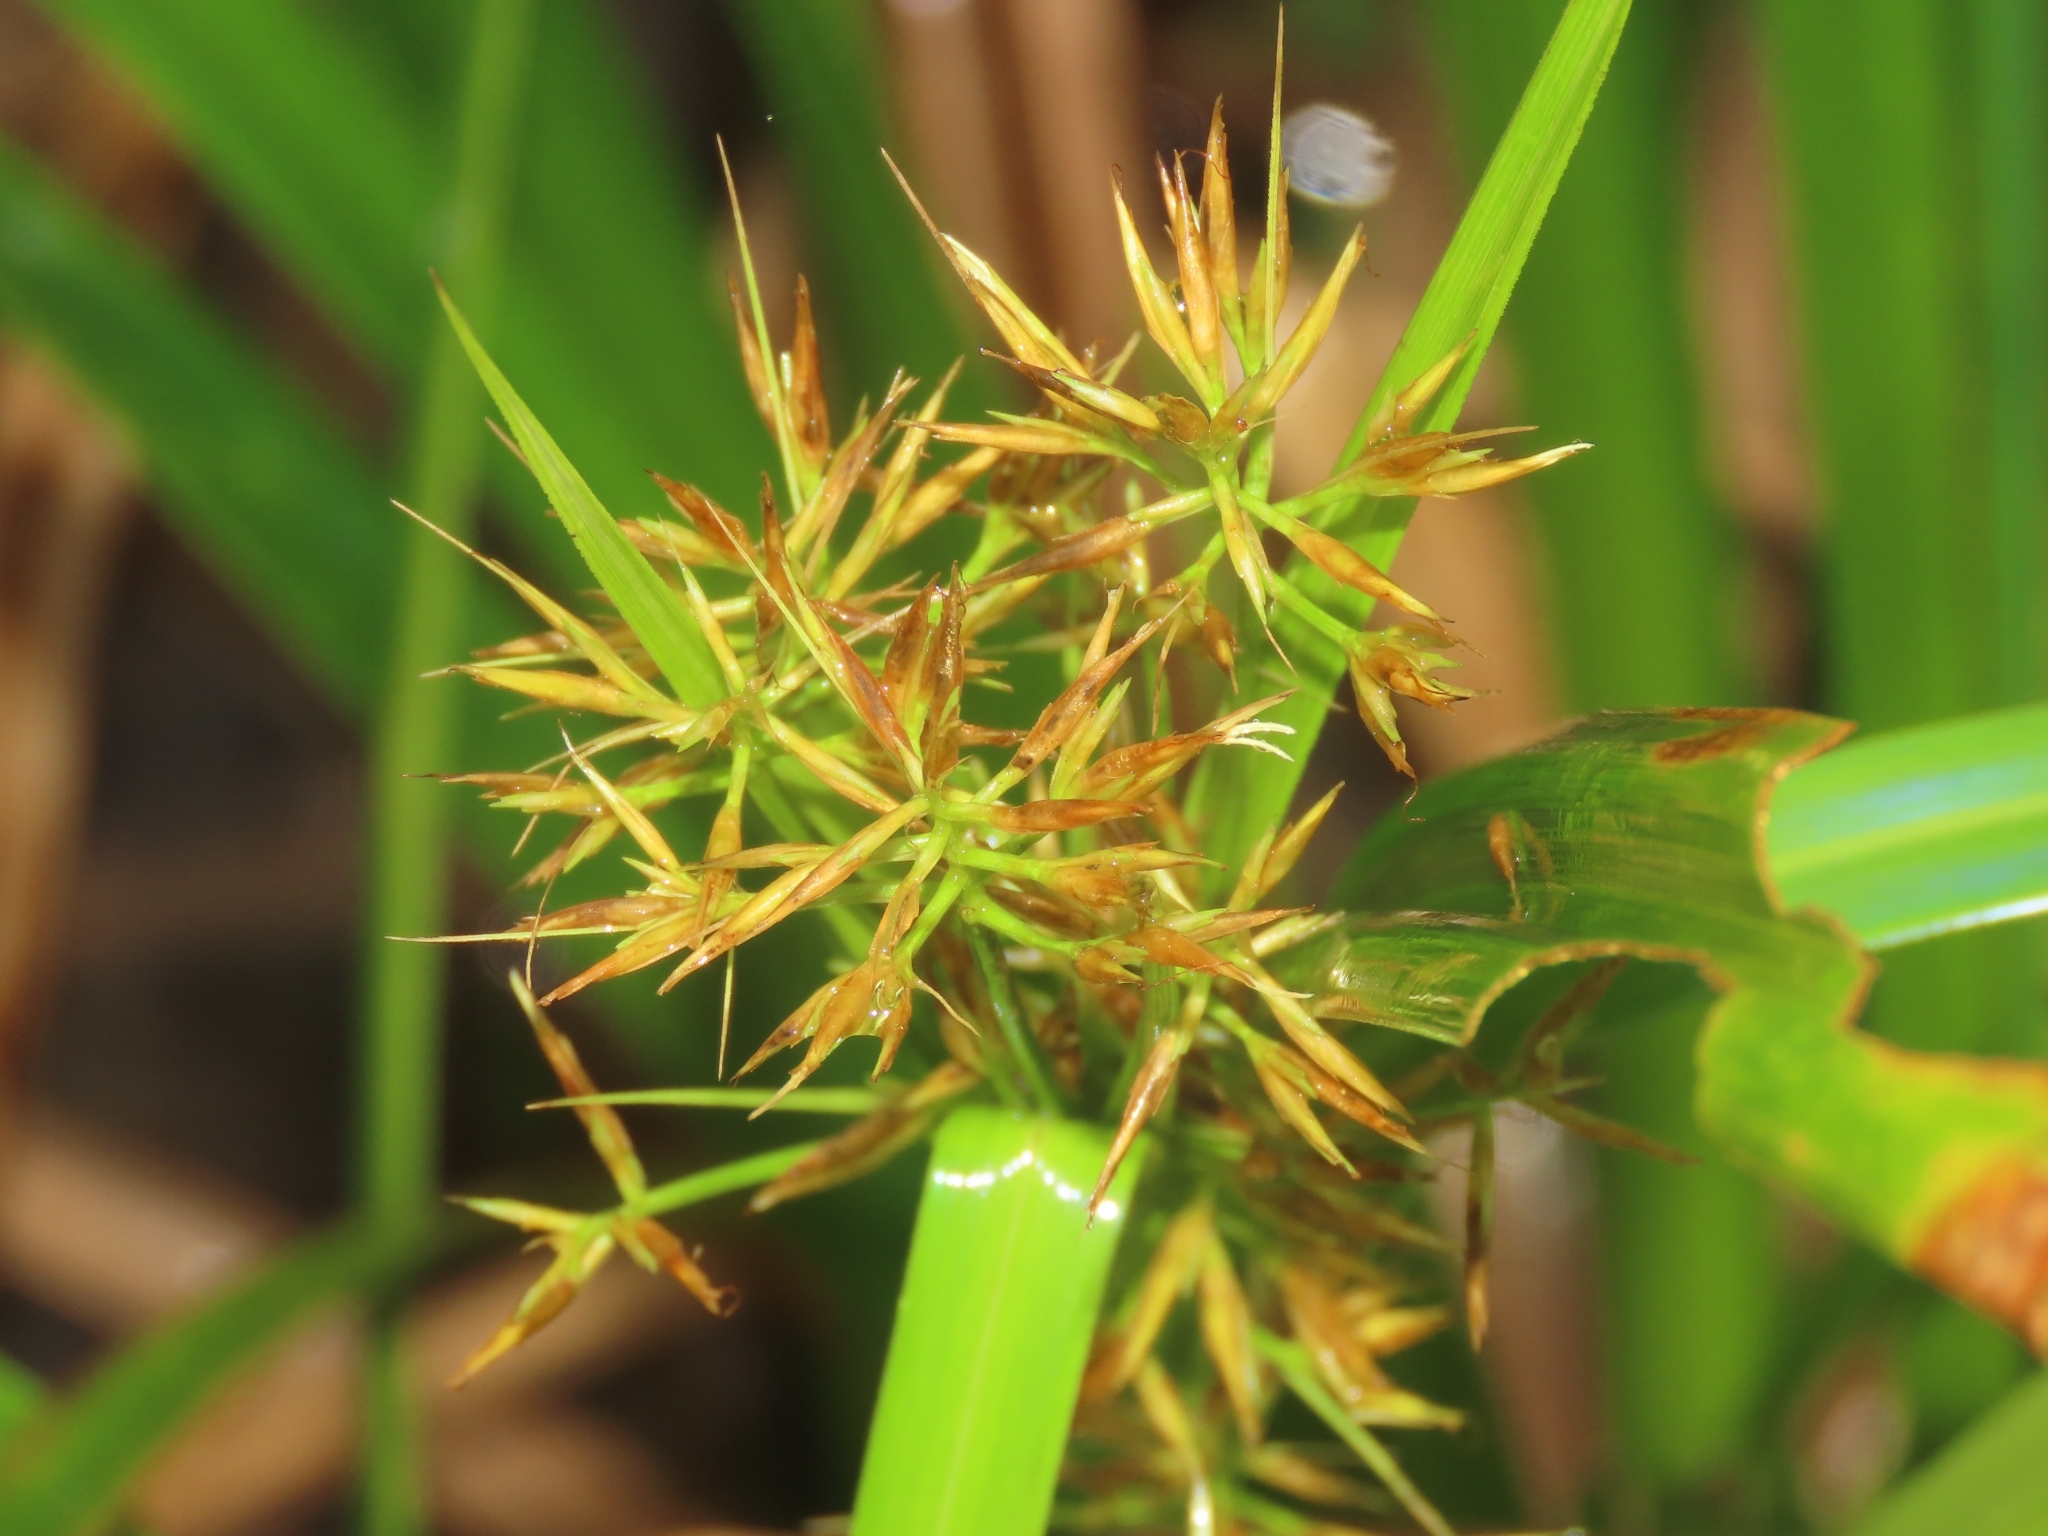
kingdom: Plantae
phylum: Tracheophyta
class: Liliopsida
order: Poales
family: Cyperaceae
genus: Rhynchospora
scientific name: Rhynchospora corymbosa
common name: Golden beak sedge
